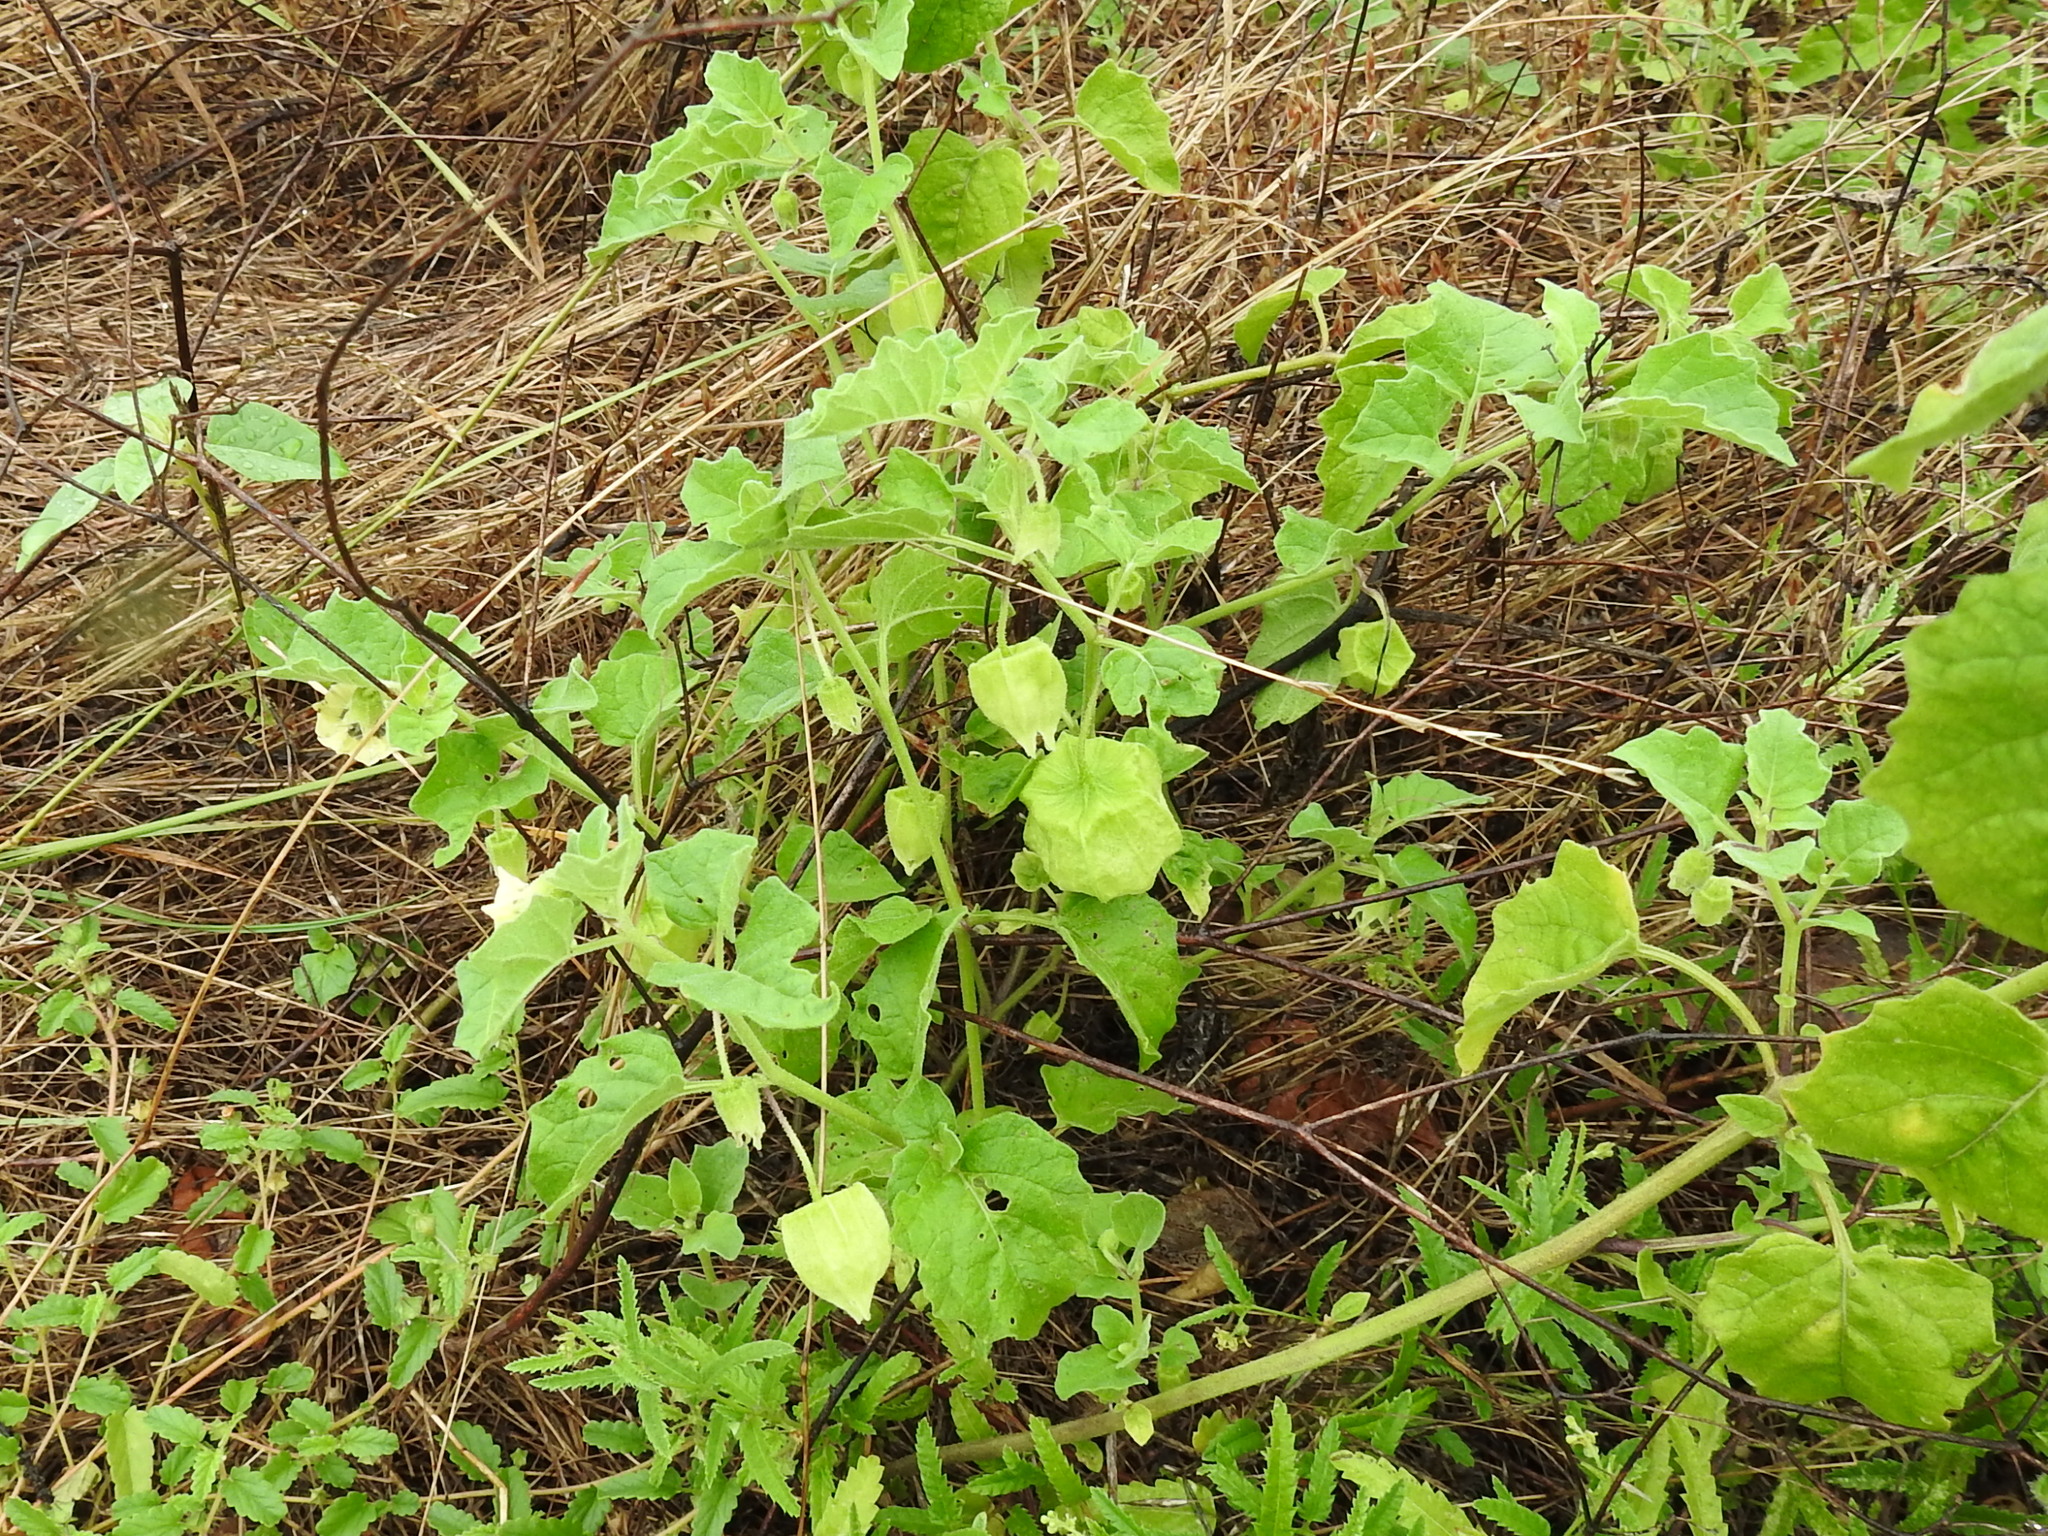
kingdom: Plantae
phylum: Tracheophyta
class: Magnoliopsida
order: Solanales
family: Solanaceae
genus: Physalis
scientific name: Physalis cinerascens
